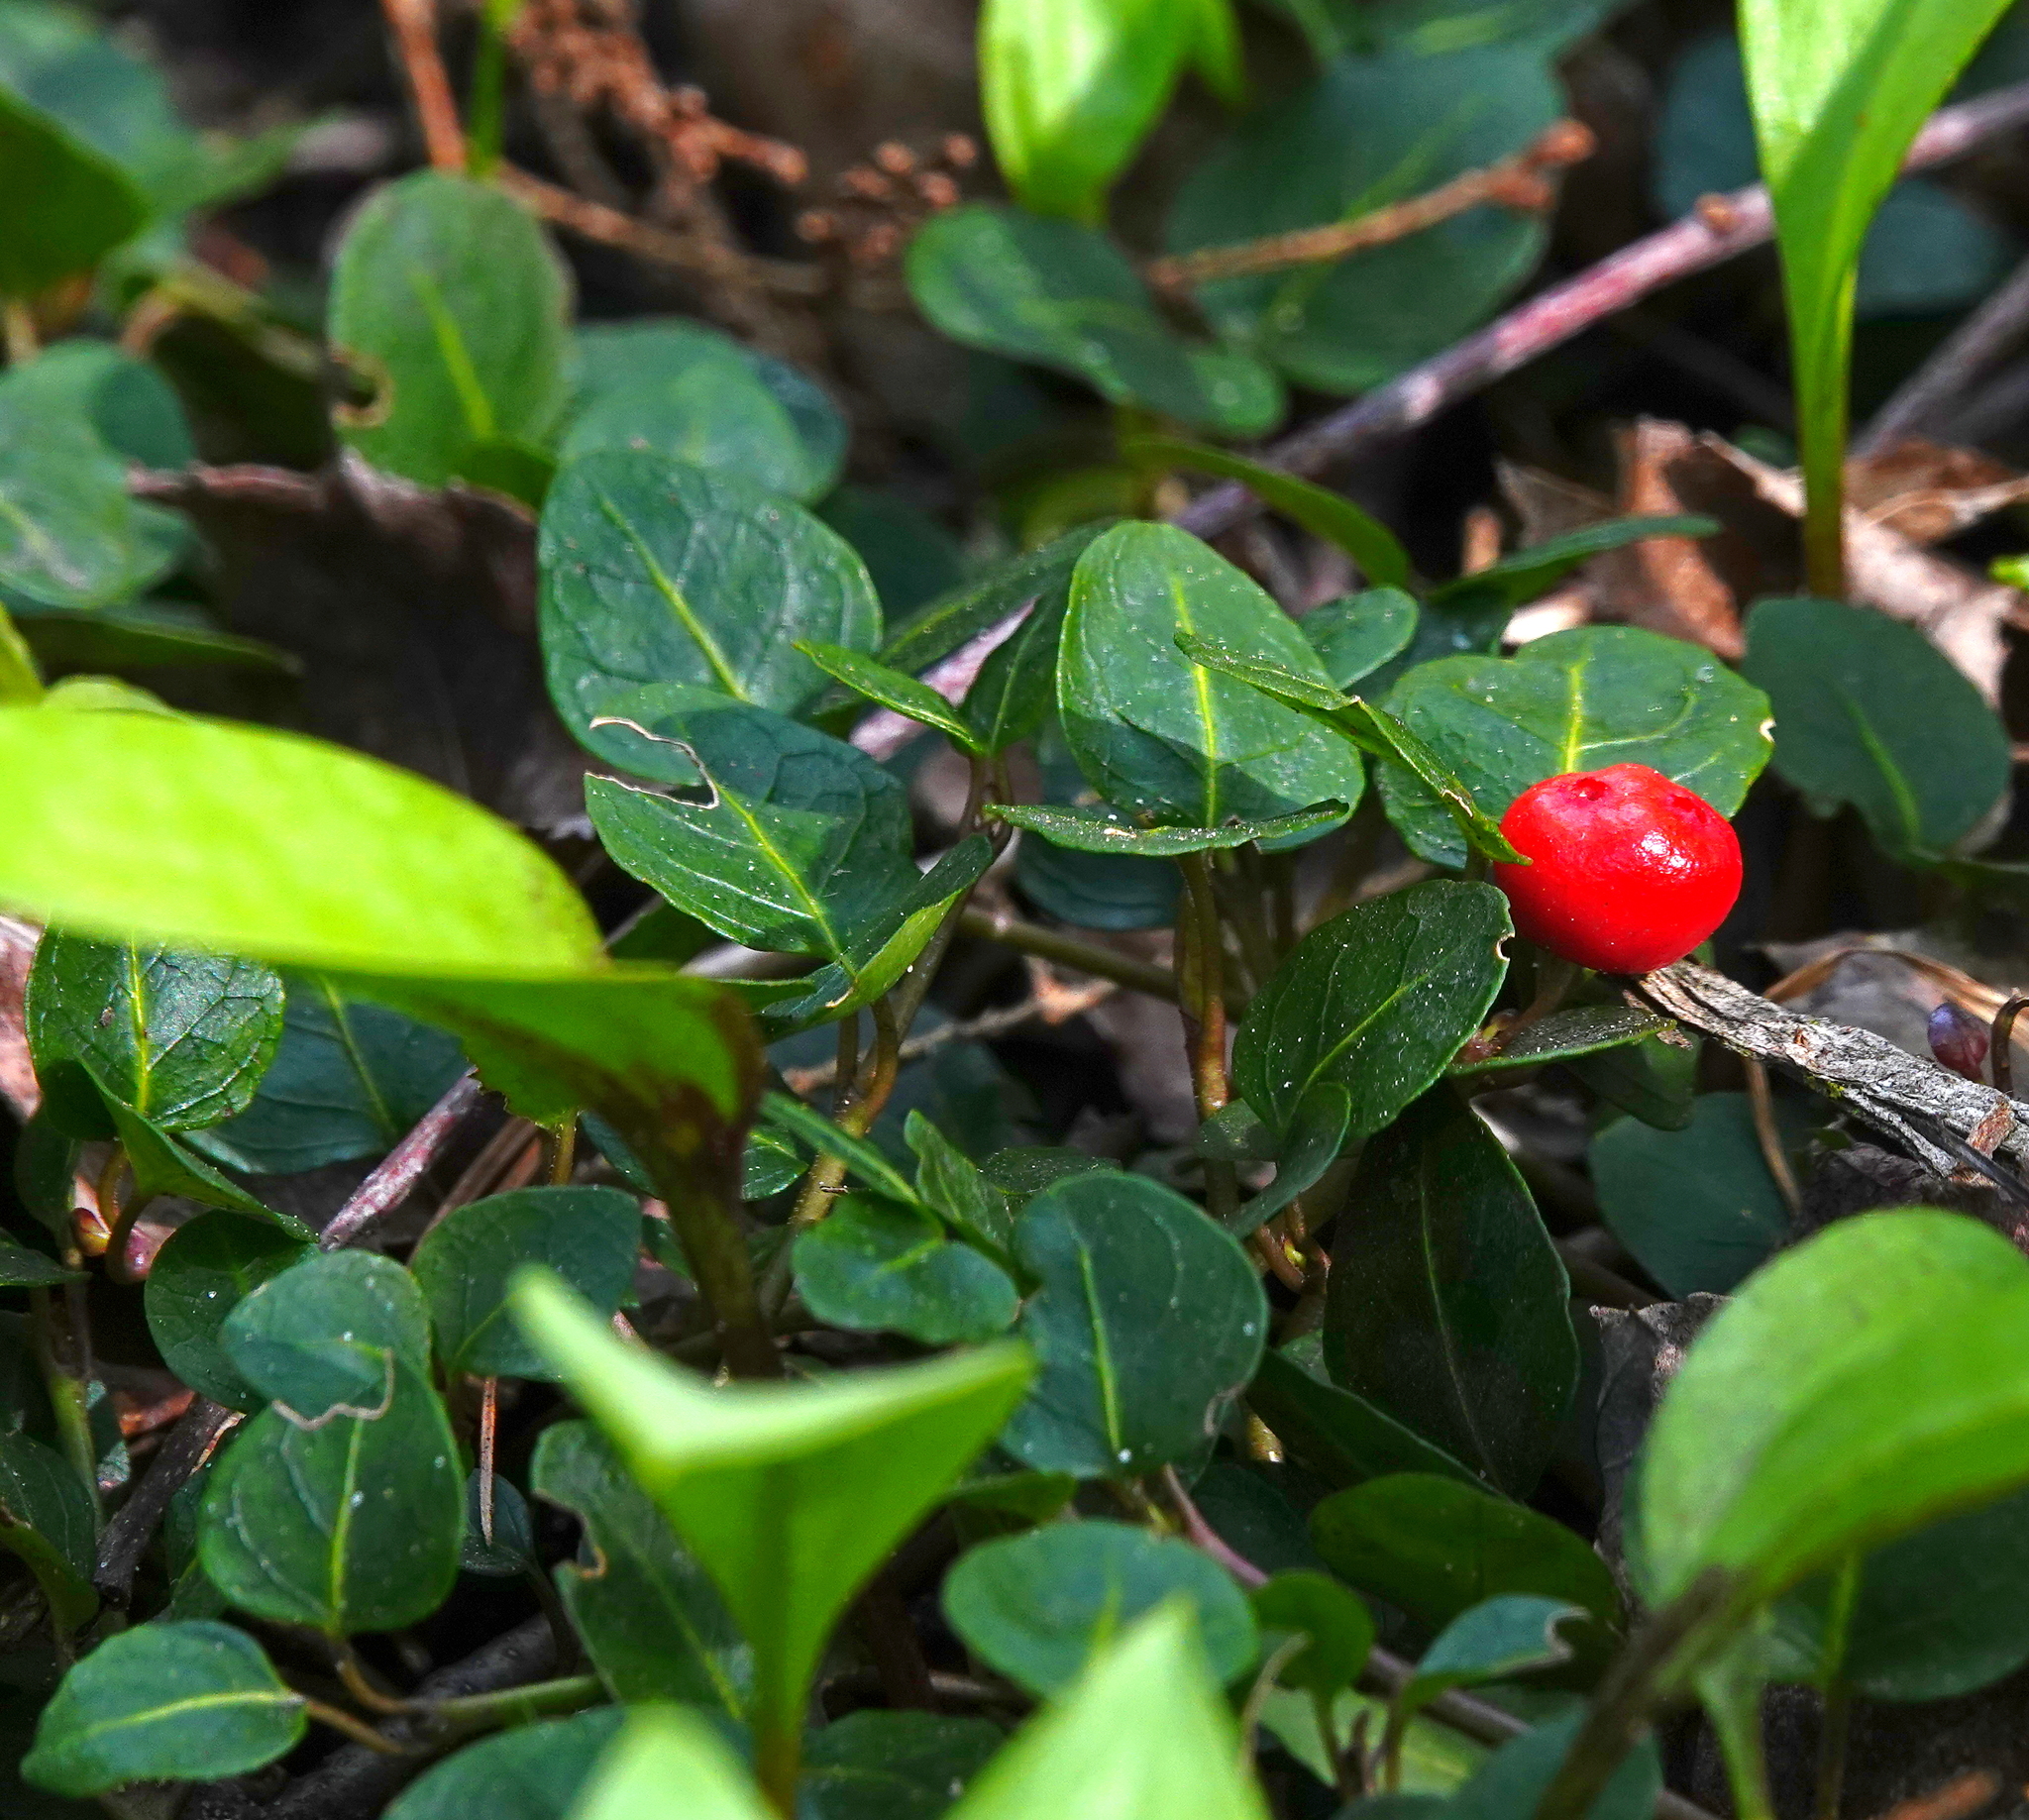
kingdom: Plantae
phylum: Tracheophyta
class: Magnoliopsida
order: Gentianales
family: Rubiaceae
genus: Mitchella
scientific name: Mitchella repens
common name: Partridge-berry
